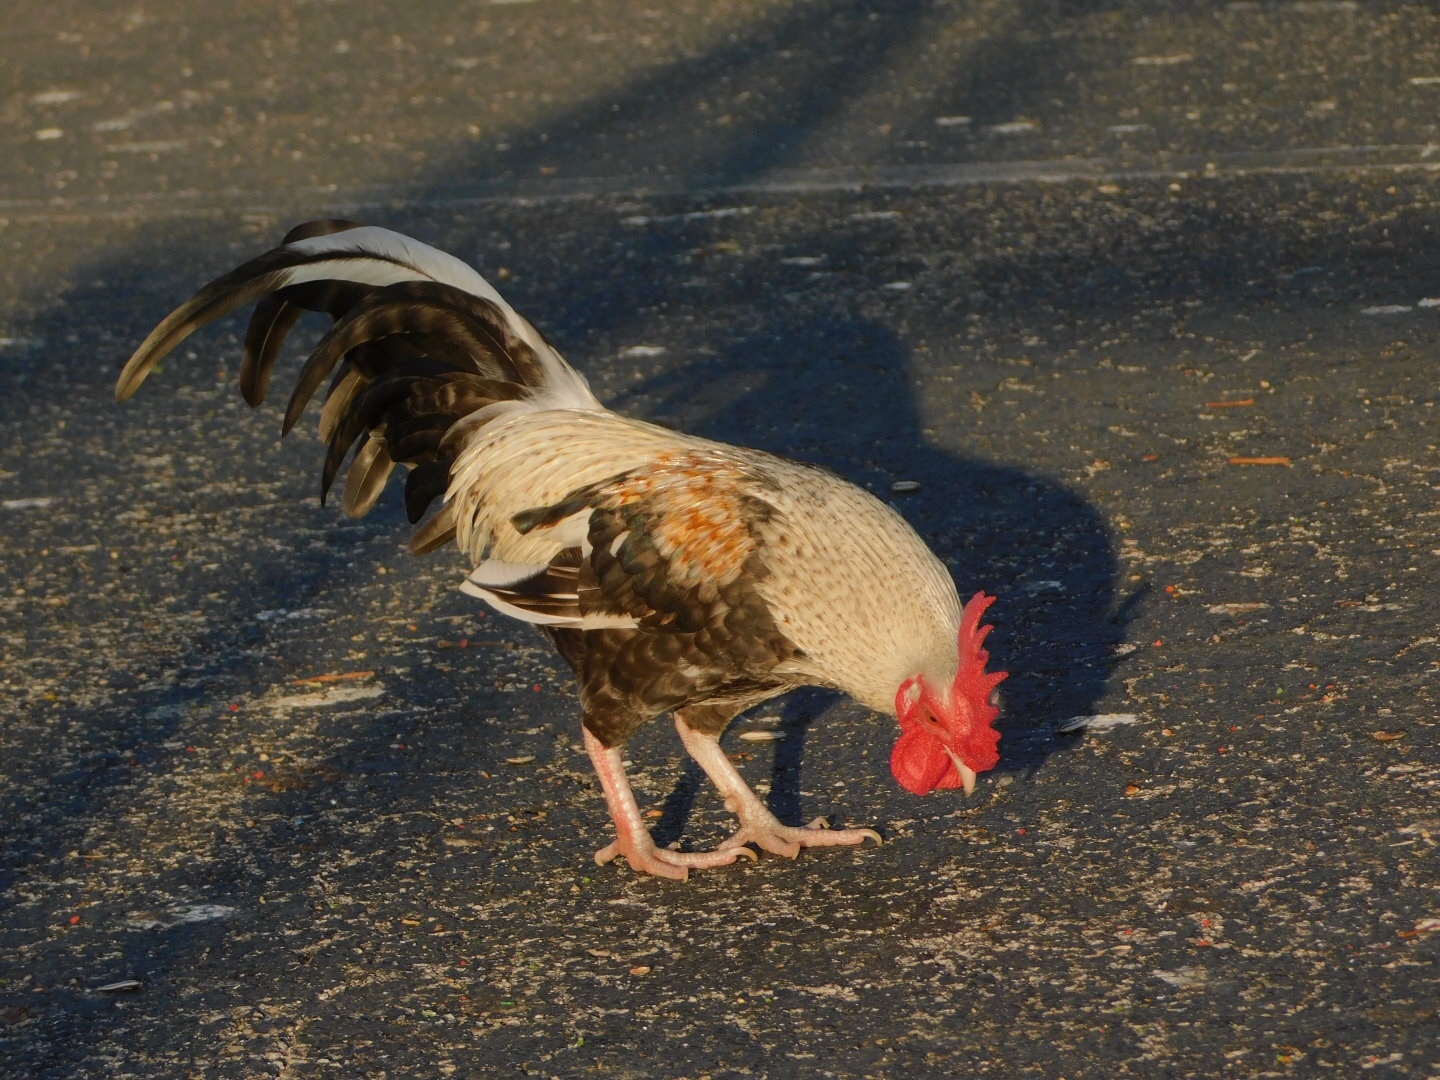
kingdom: Animalia
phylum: Chordata
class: Aves
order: Galliformes
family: Phasianidae
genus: Gallus
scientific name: Gallus gallus
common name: Red junglefowl
